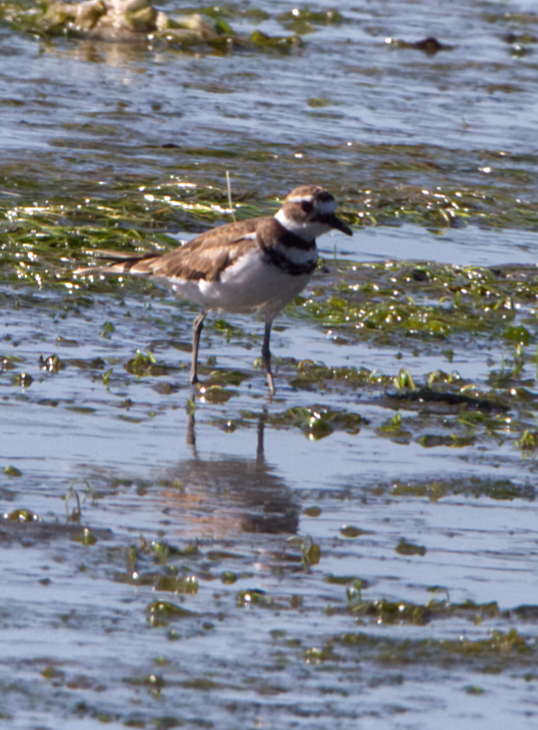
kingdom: Animalia
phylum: Chordata
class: Aves
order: Charadriiformes
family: Charadriidae
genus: Charadrius
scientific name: Charadrius vociferus
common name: Killdeer
